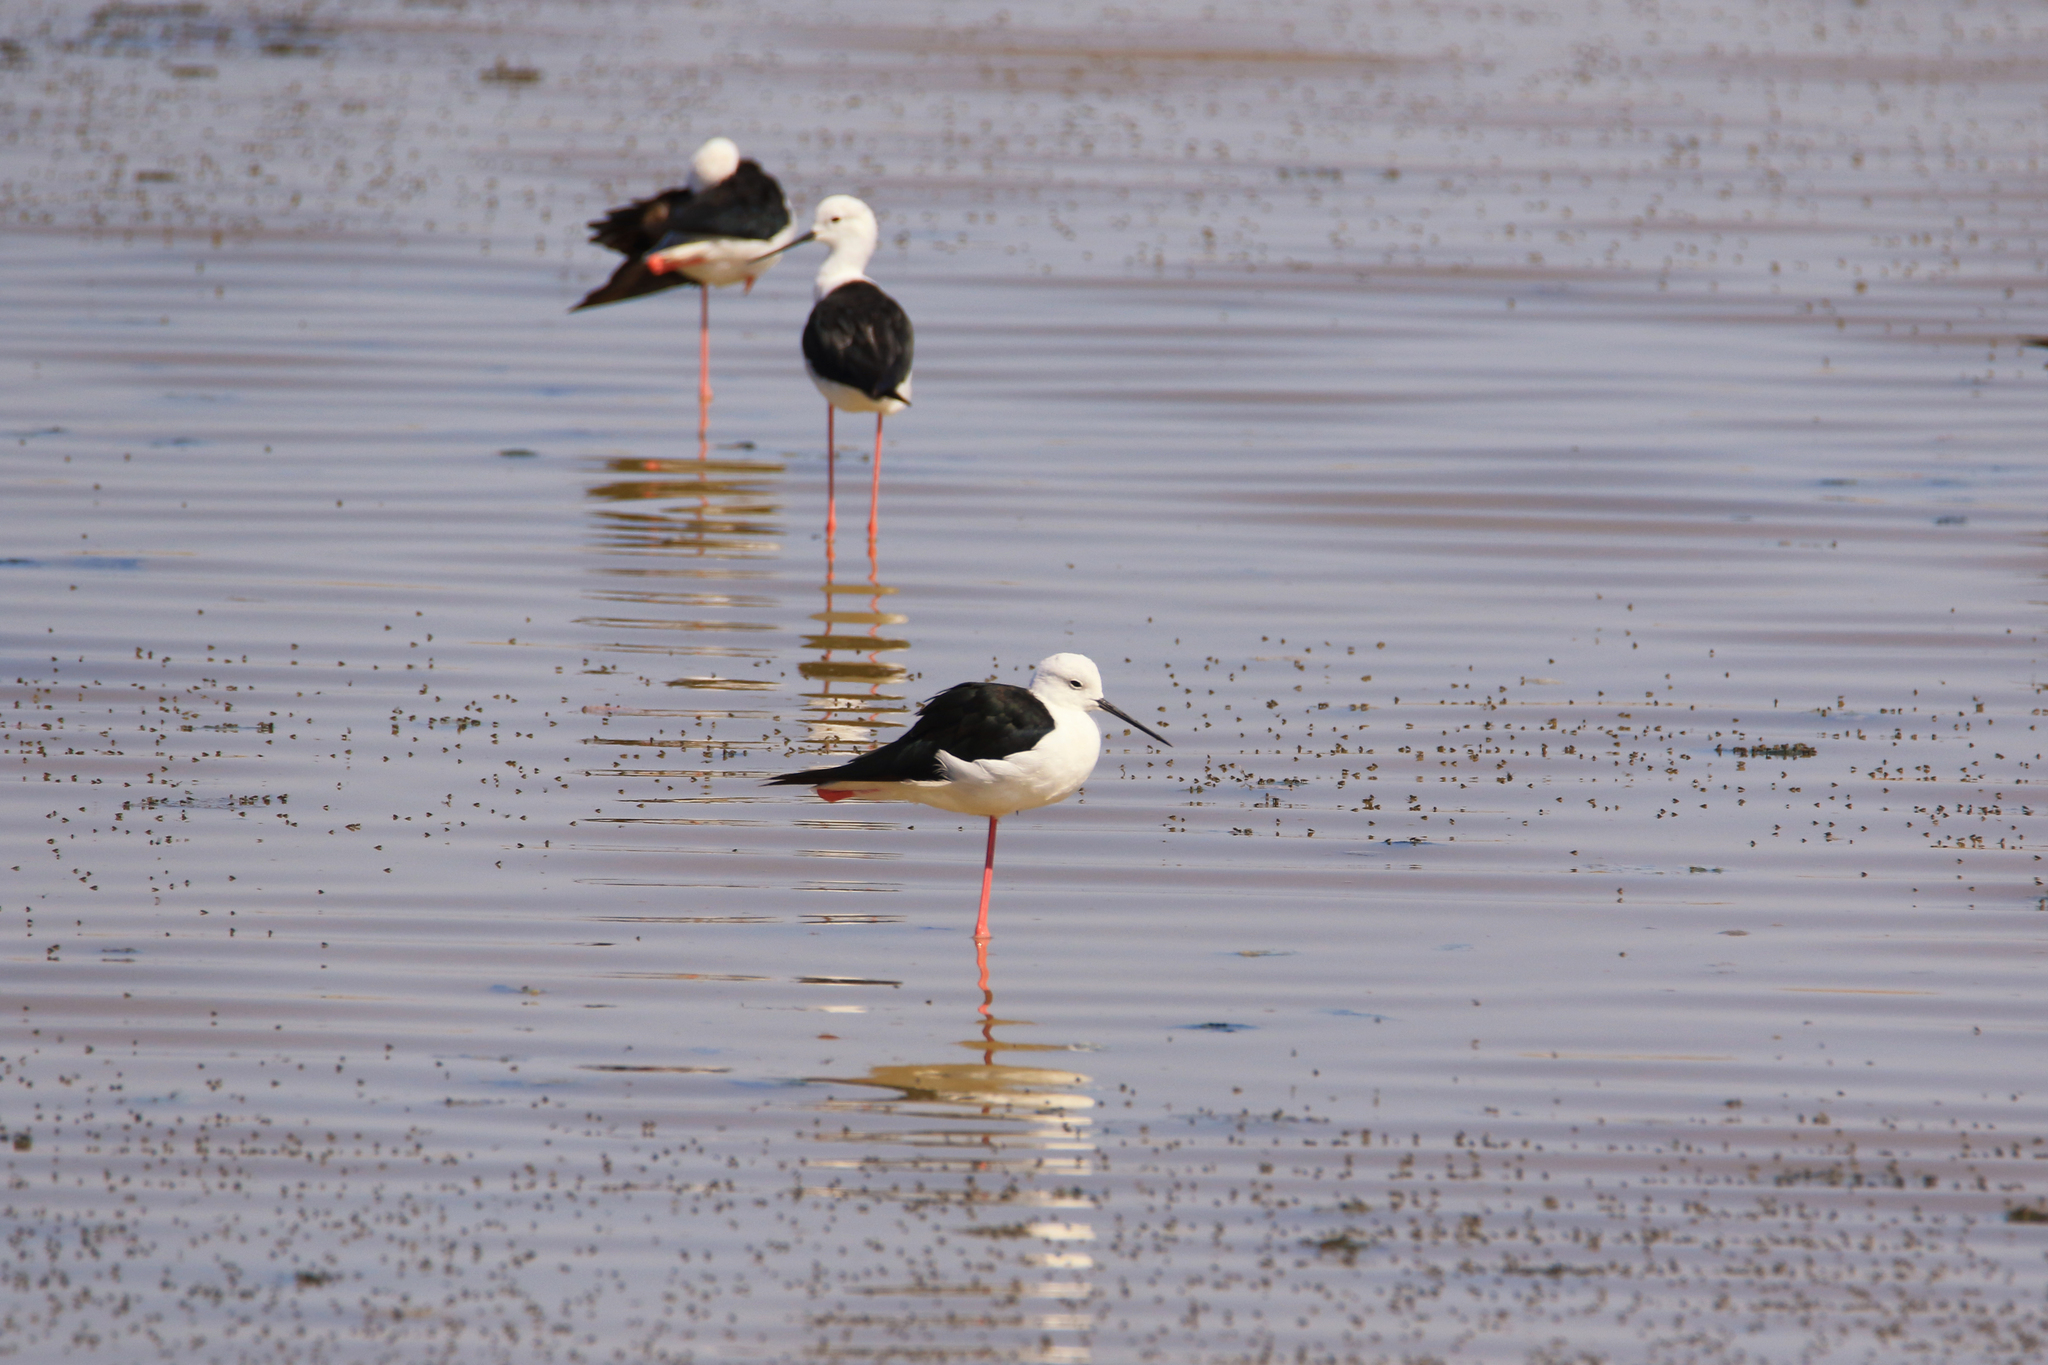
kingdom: Animalia
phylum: Chordata
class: Aves
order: Charadriiformes
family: Recurvirostridae
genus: Himantopus
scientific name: Himantopus himantopus
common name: Black-winged stilt
